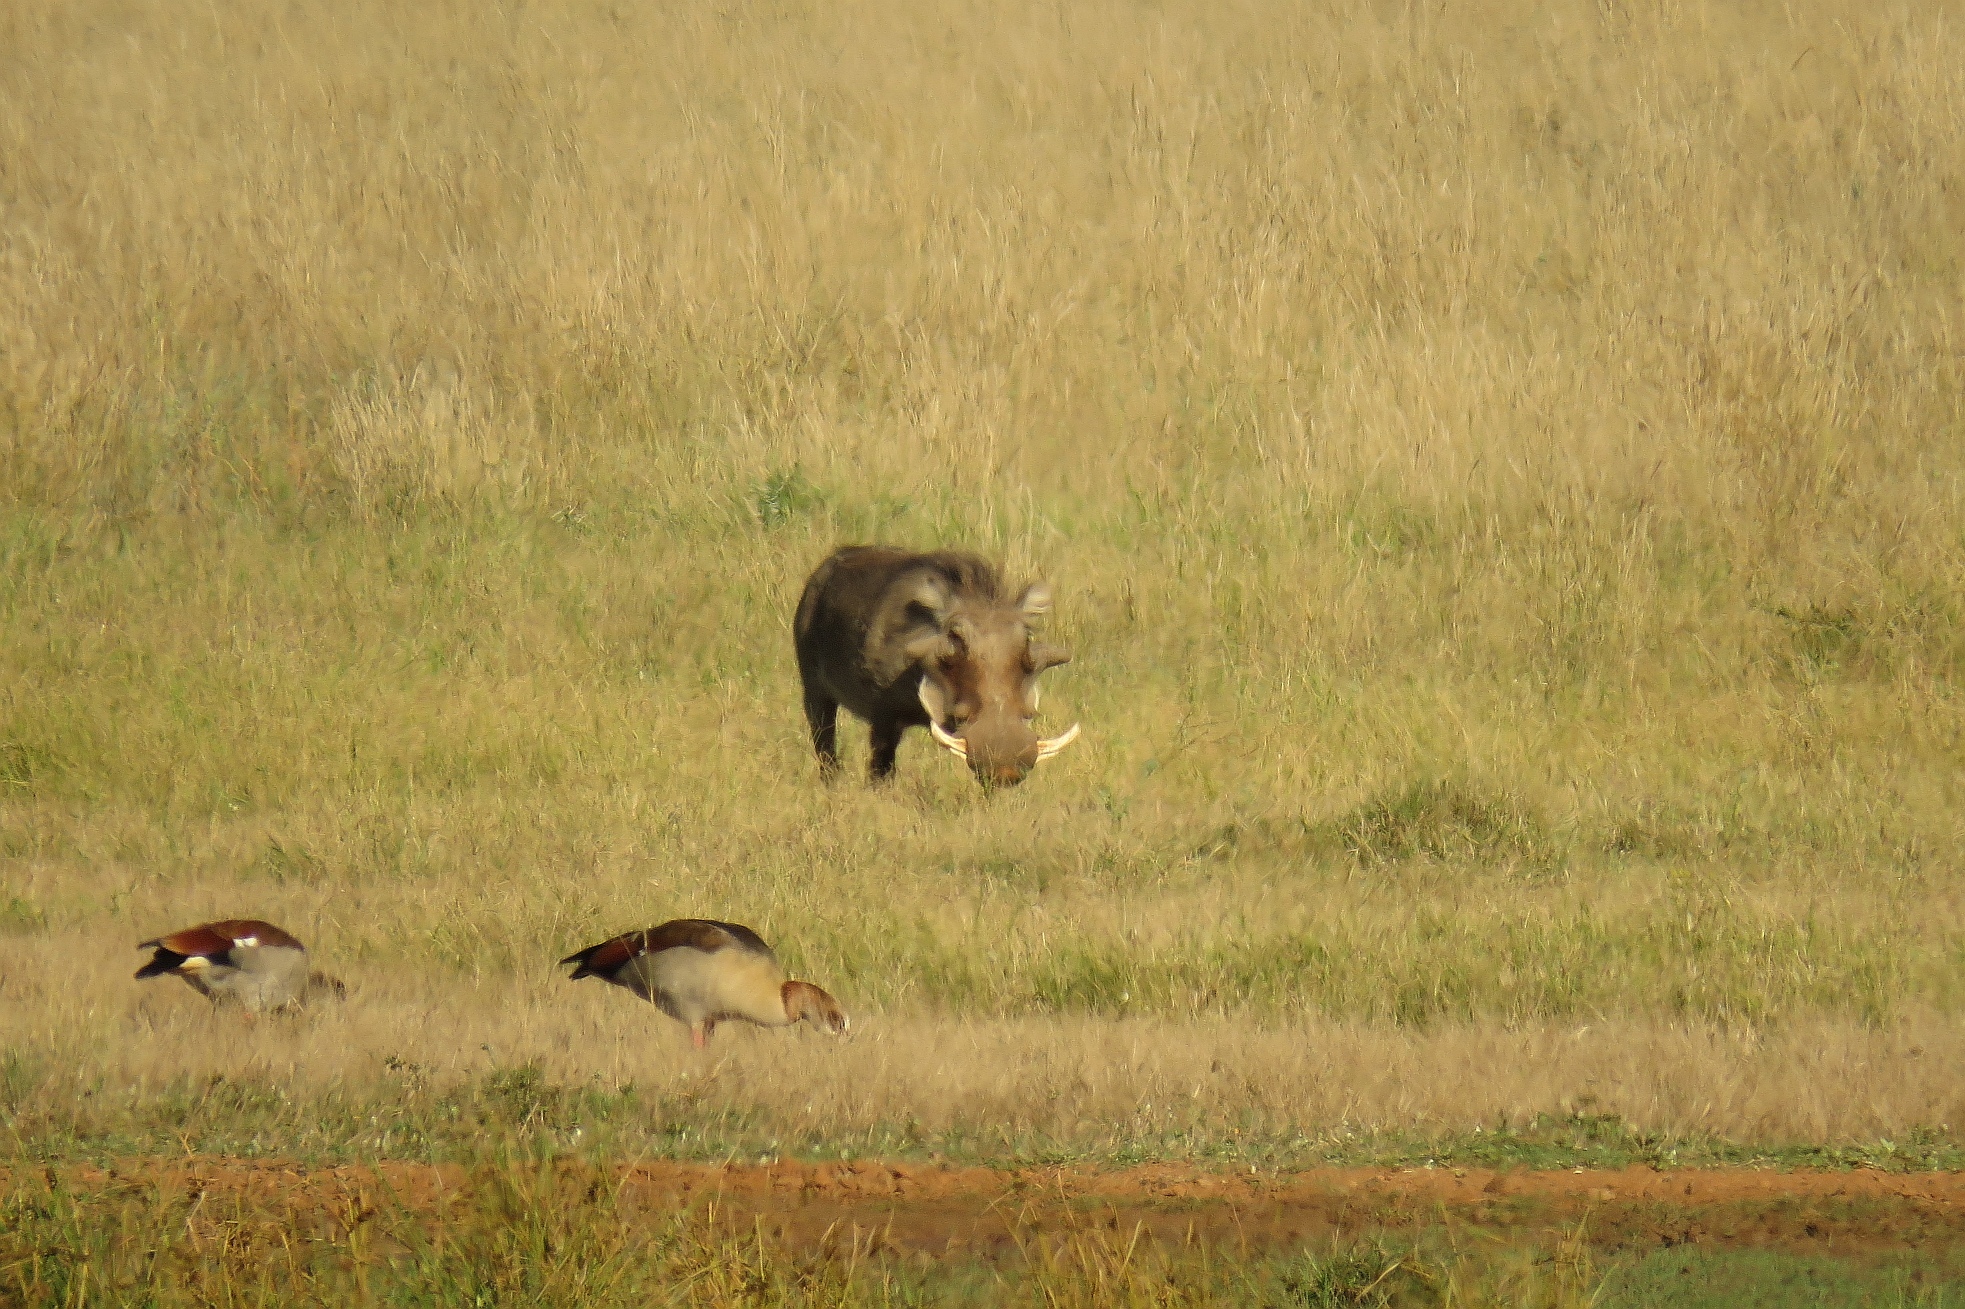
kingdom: Animalia
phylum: Chordata
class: Mammalia
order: Artiodactyla
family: Suidae
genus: Phacochoerus
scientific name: Phacochoerus africanus
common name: Common warthog
